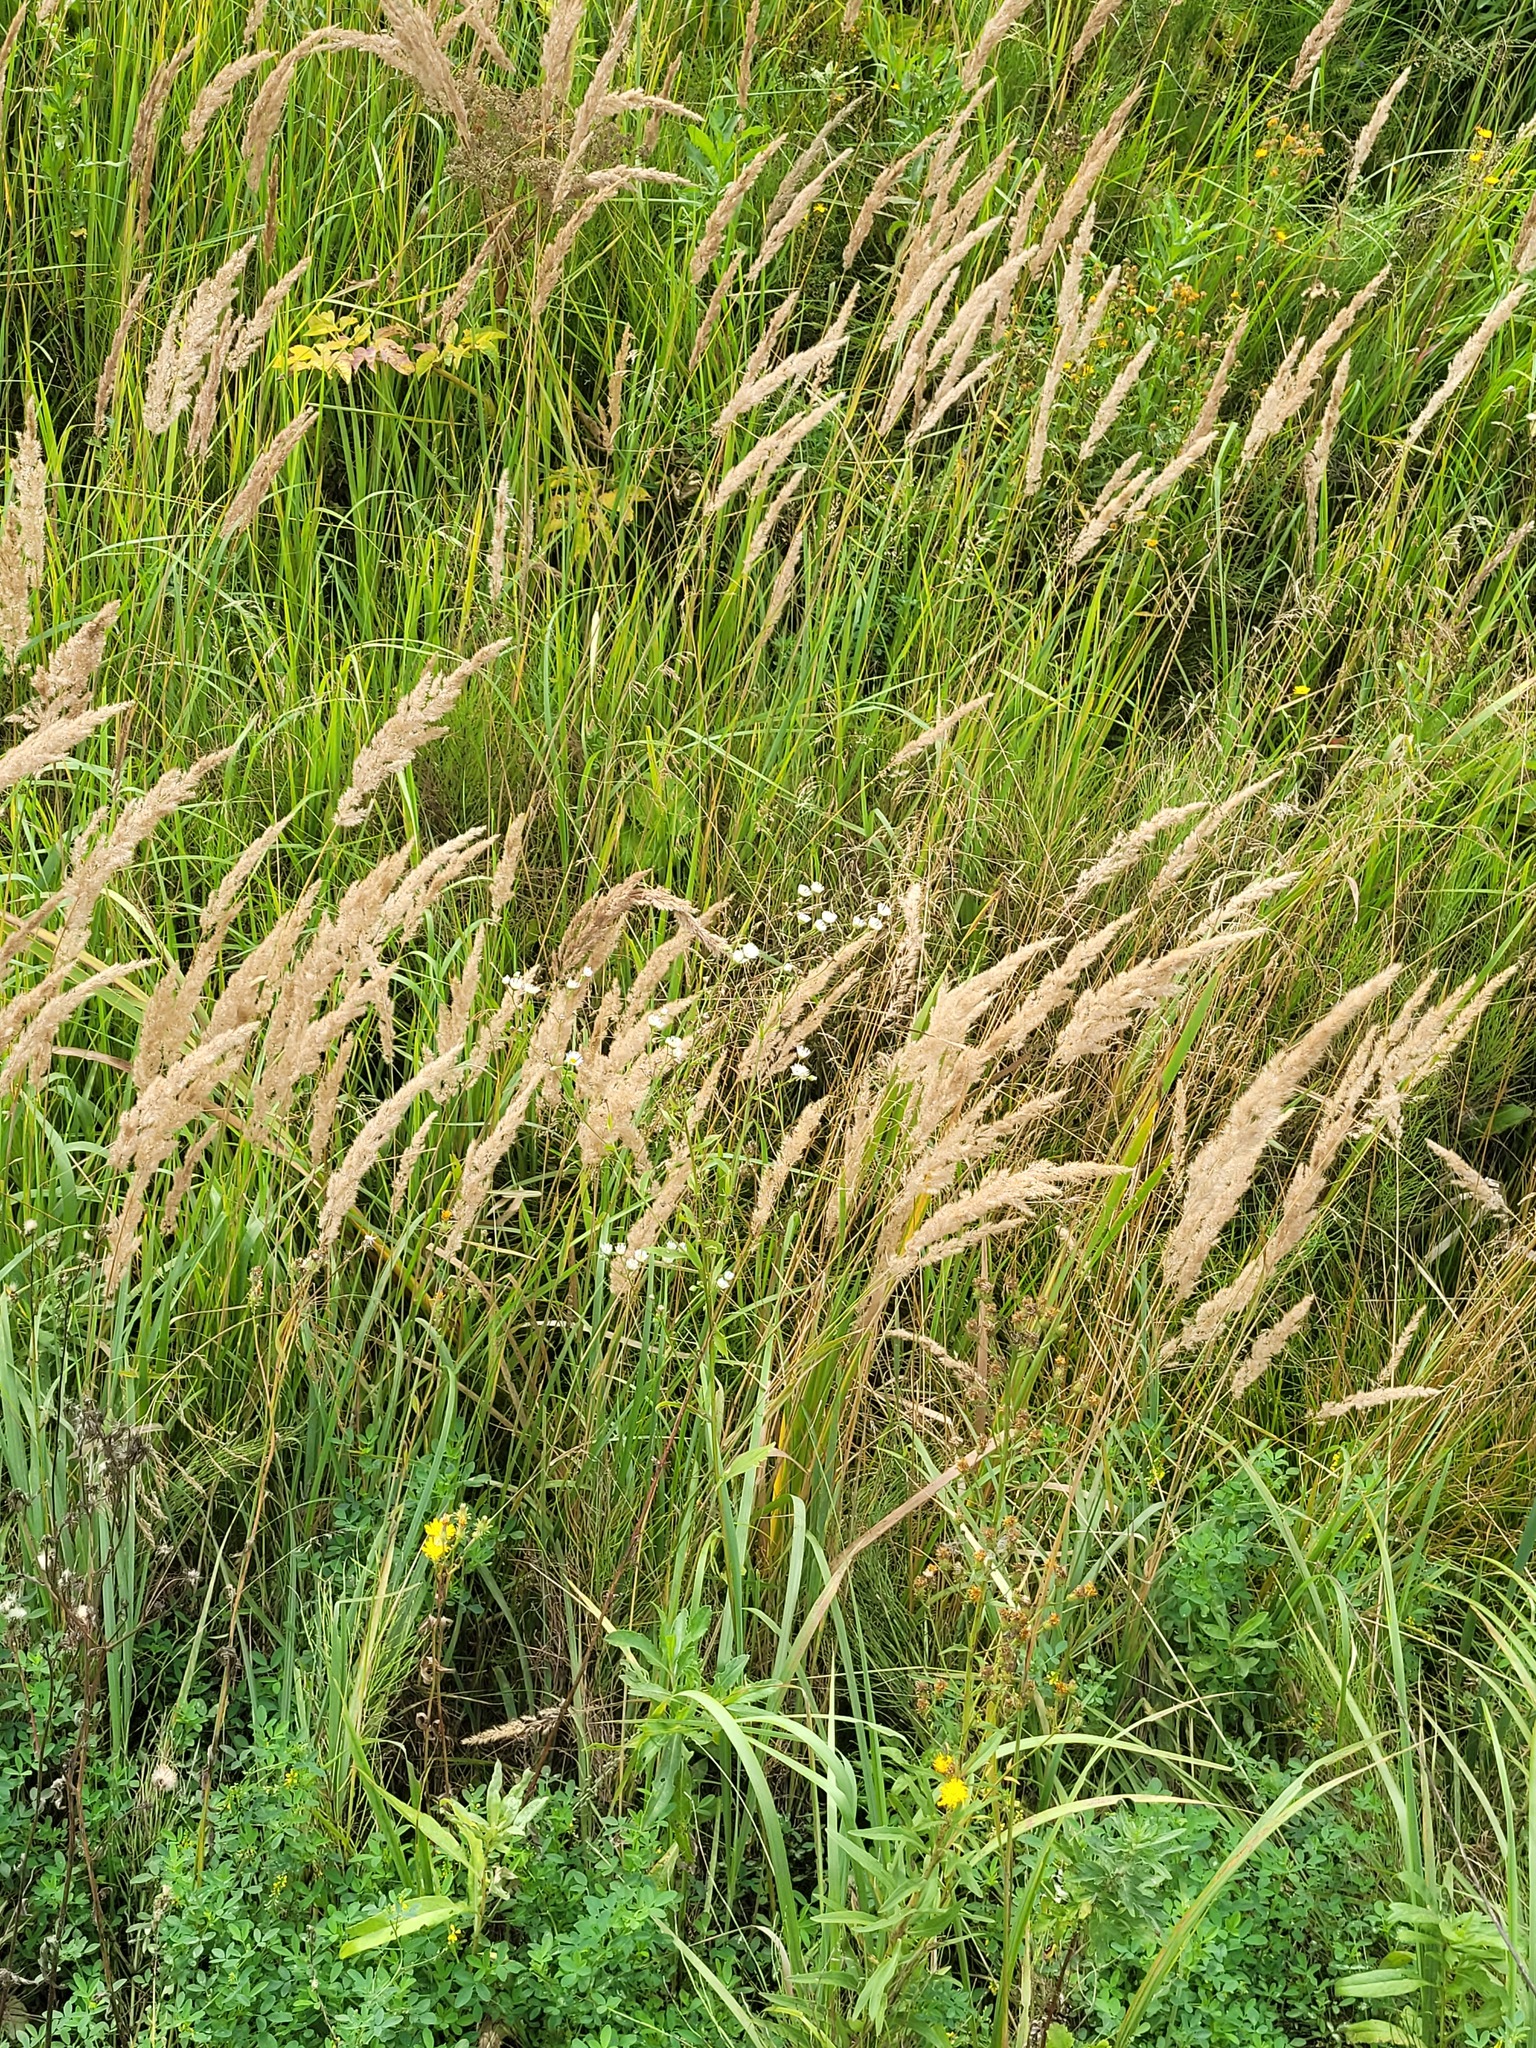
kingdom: Plantae
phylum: Tracheophyta
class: Magnoliopsida
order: Asterales
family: Asteraceae
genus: Erigeron
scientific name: Erigeron annuus
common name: Tall fleabane
